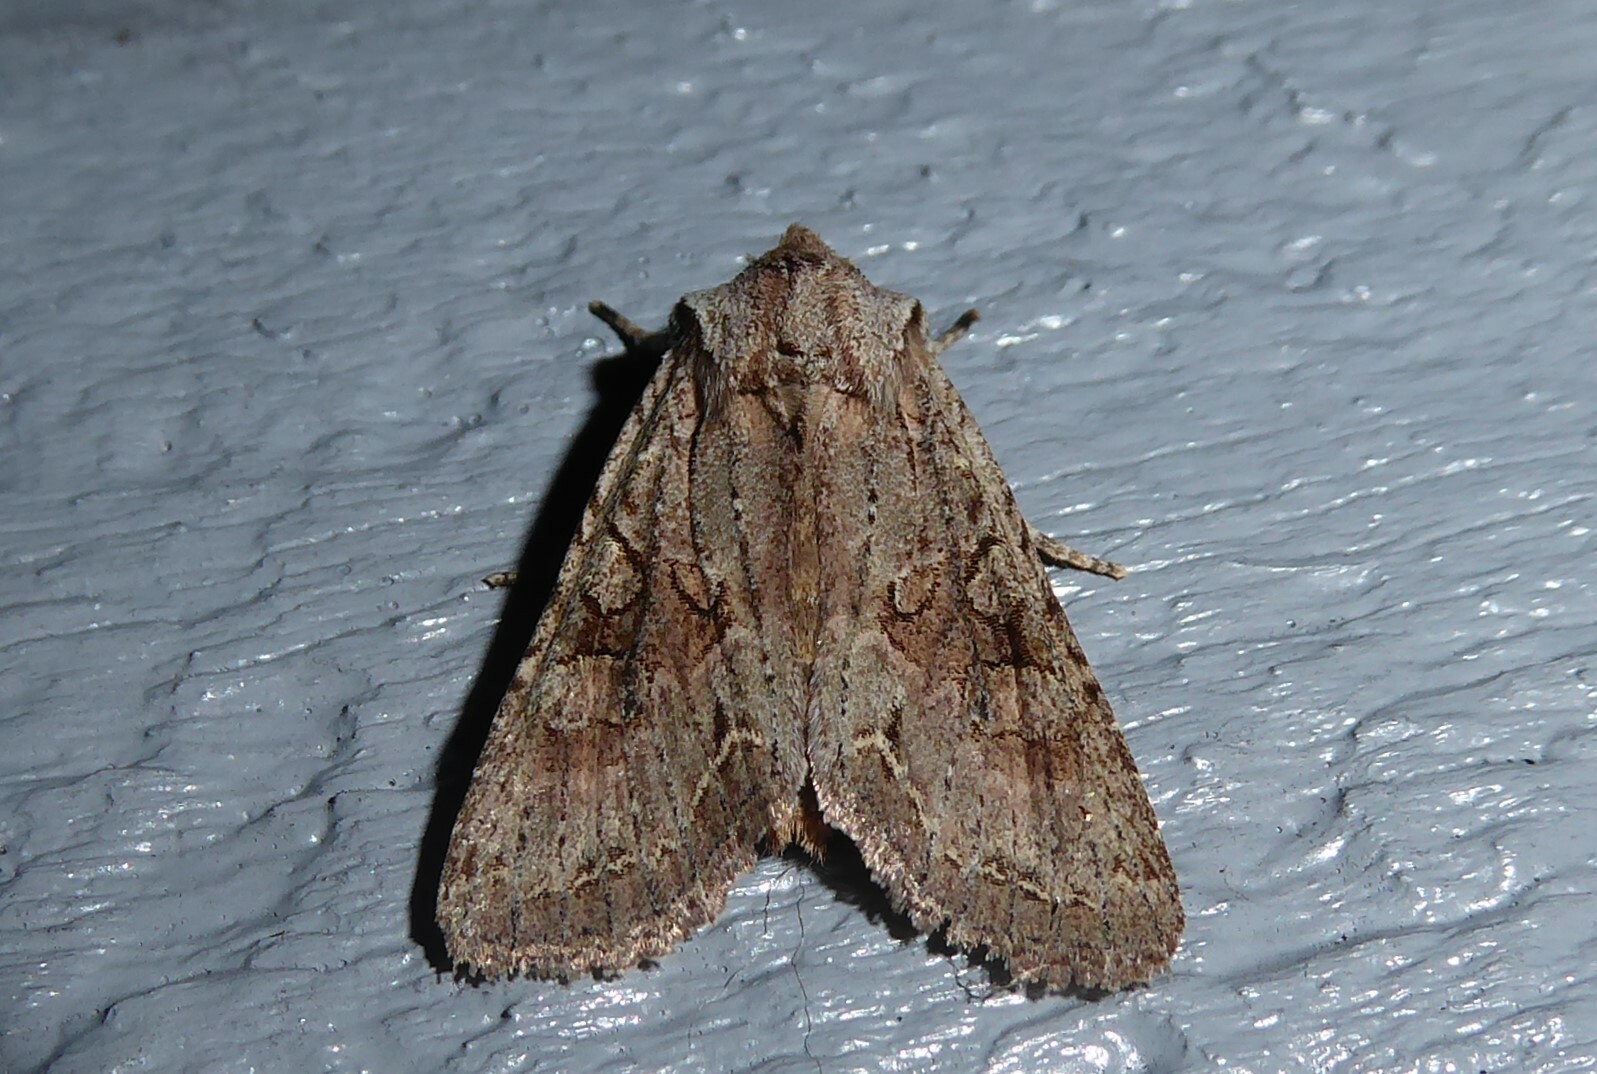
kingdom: Animalia
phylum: Arthropoda
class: Insecta
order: Lepidoptera
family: Noctuidae
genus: Ichneutica
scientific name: Ichneutica mutans
